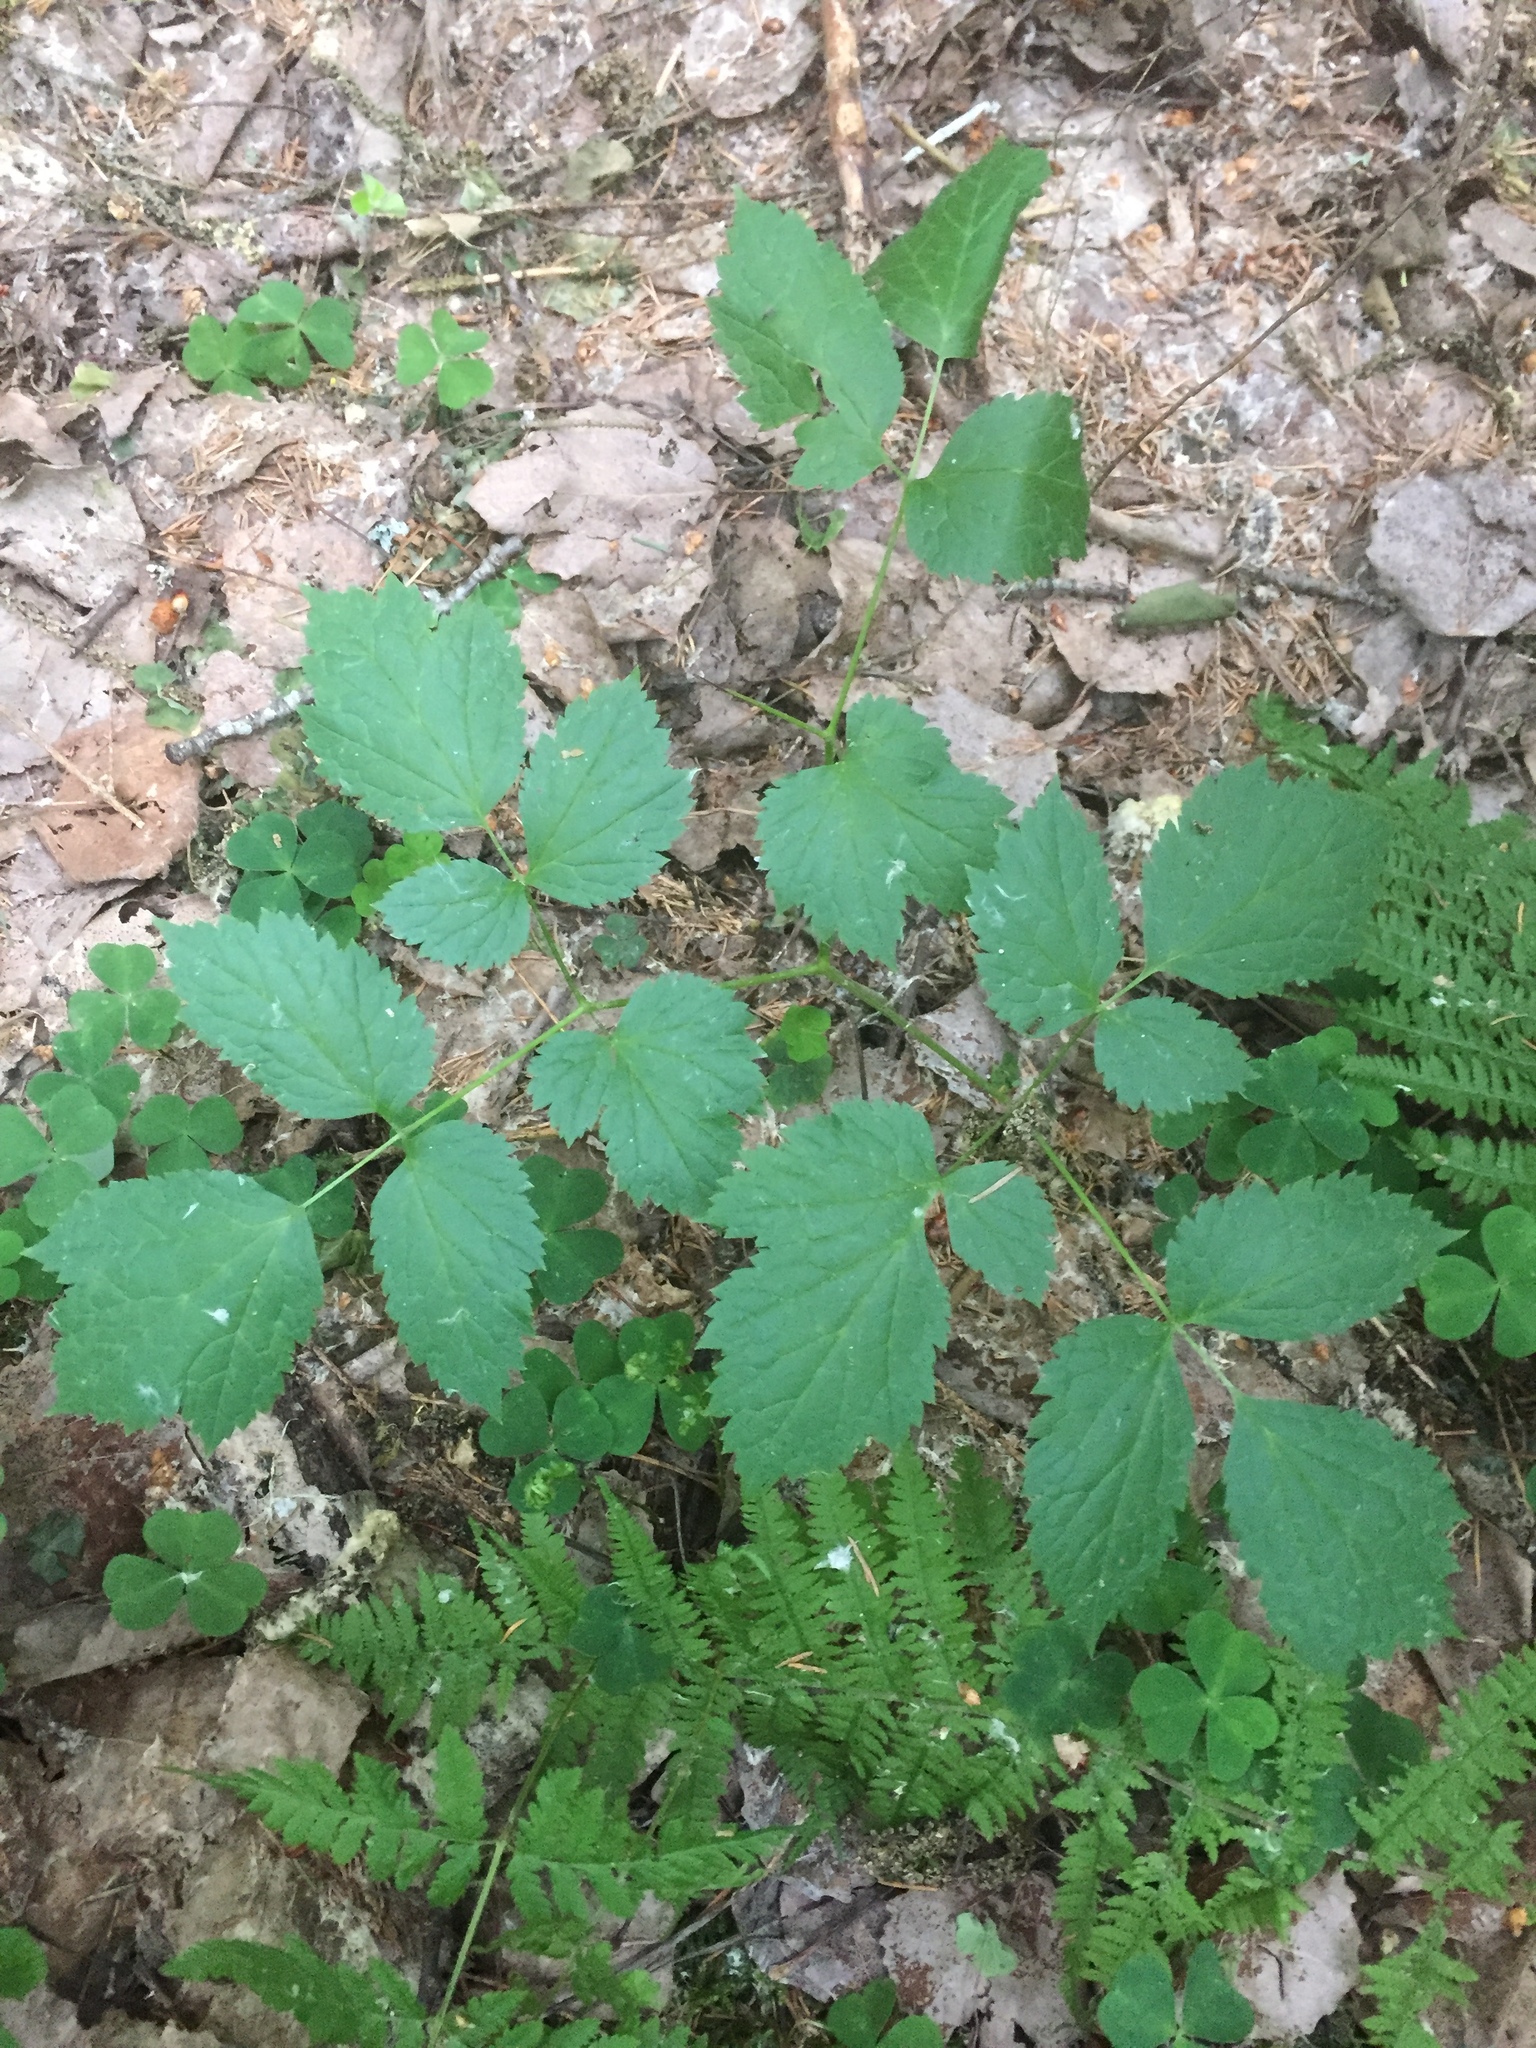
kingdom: Plantae
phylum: Tracheophyta
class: Magnoliopsida
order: Ranunculales
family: Ranunculaceae
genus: Actaea
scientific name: Actaea spicata
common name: Baneberry
